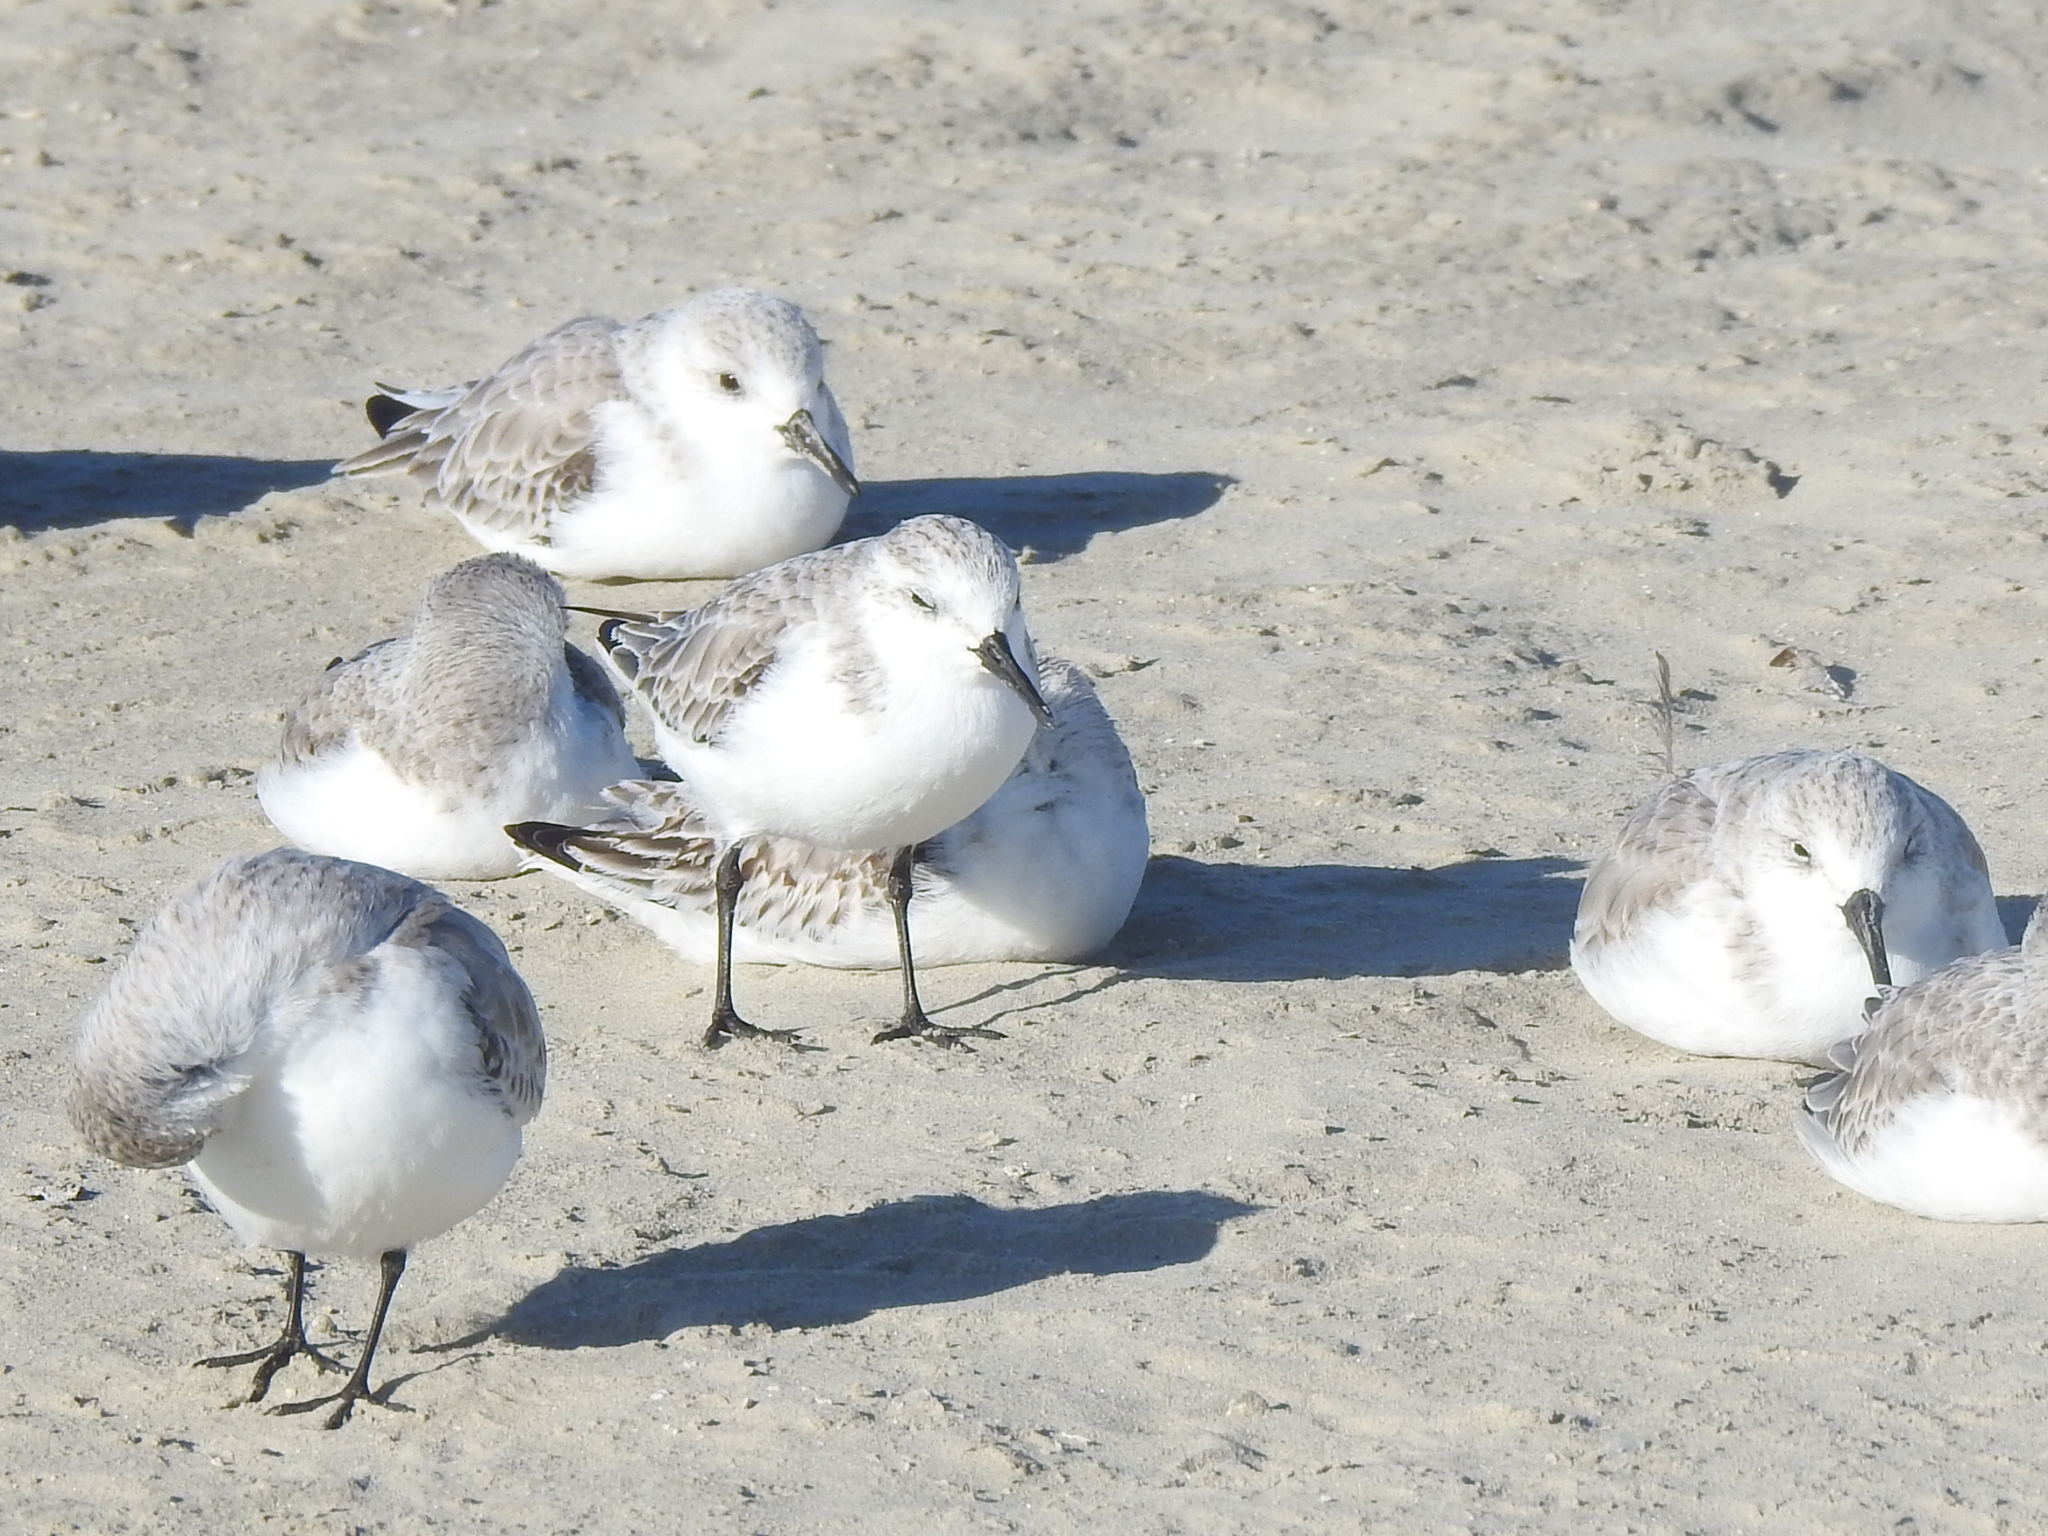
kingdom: Animalia
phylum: Chordata
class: Aves
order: Charadriiformes
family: Scolopacidae
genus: Calidris
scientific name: Calidris alba
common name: Sanderling
